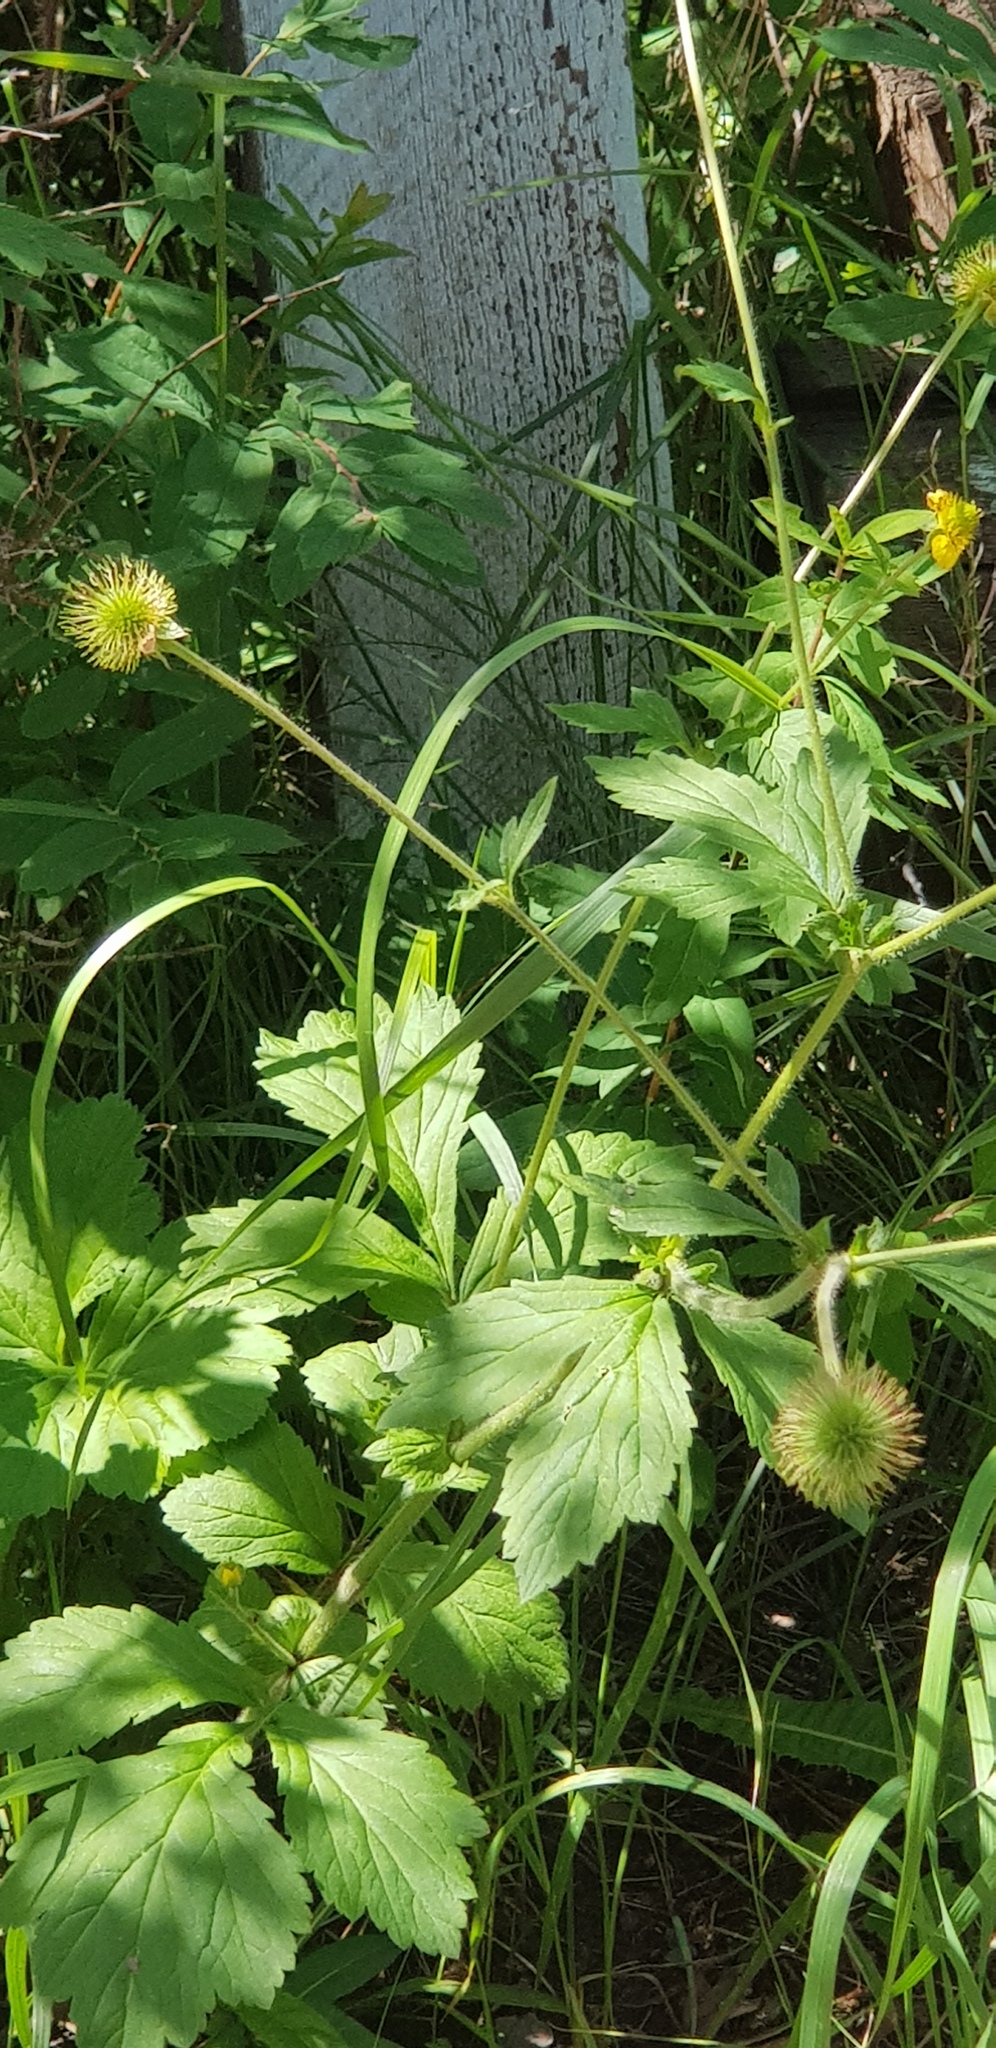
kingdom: Plantae
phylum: Tracheophyta
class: Magnoliopsida
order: Rosales
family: Rosaceae
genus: Geum
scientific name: Geum aleppicum
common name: Yellow avens
